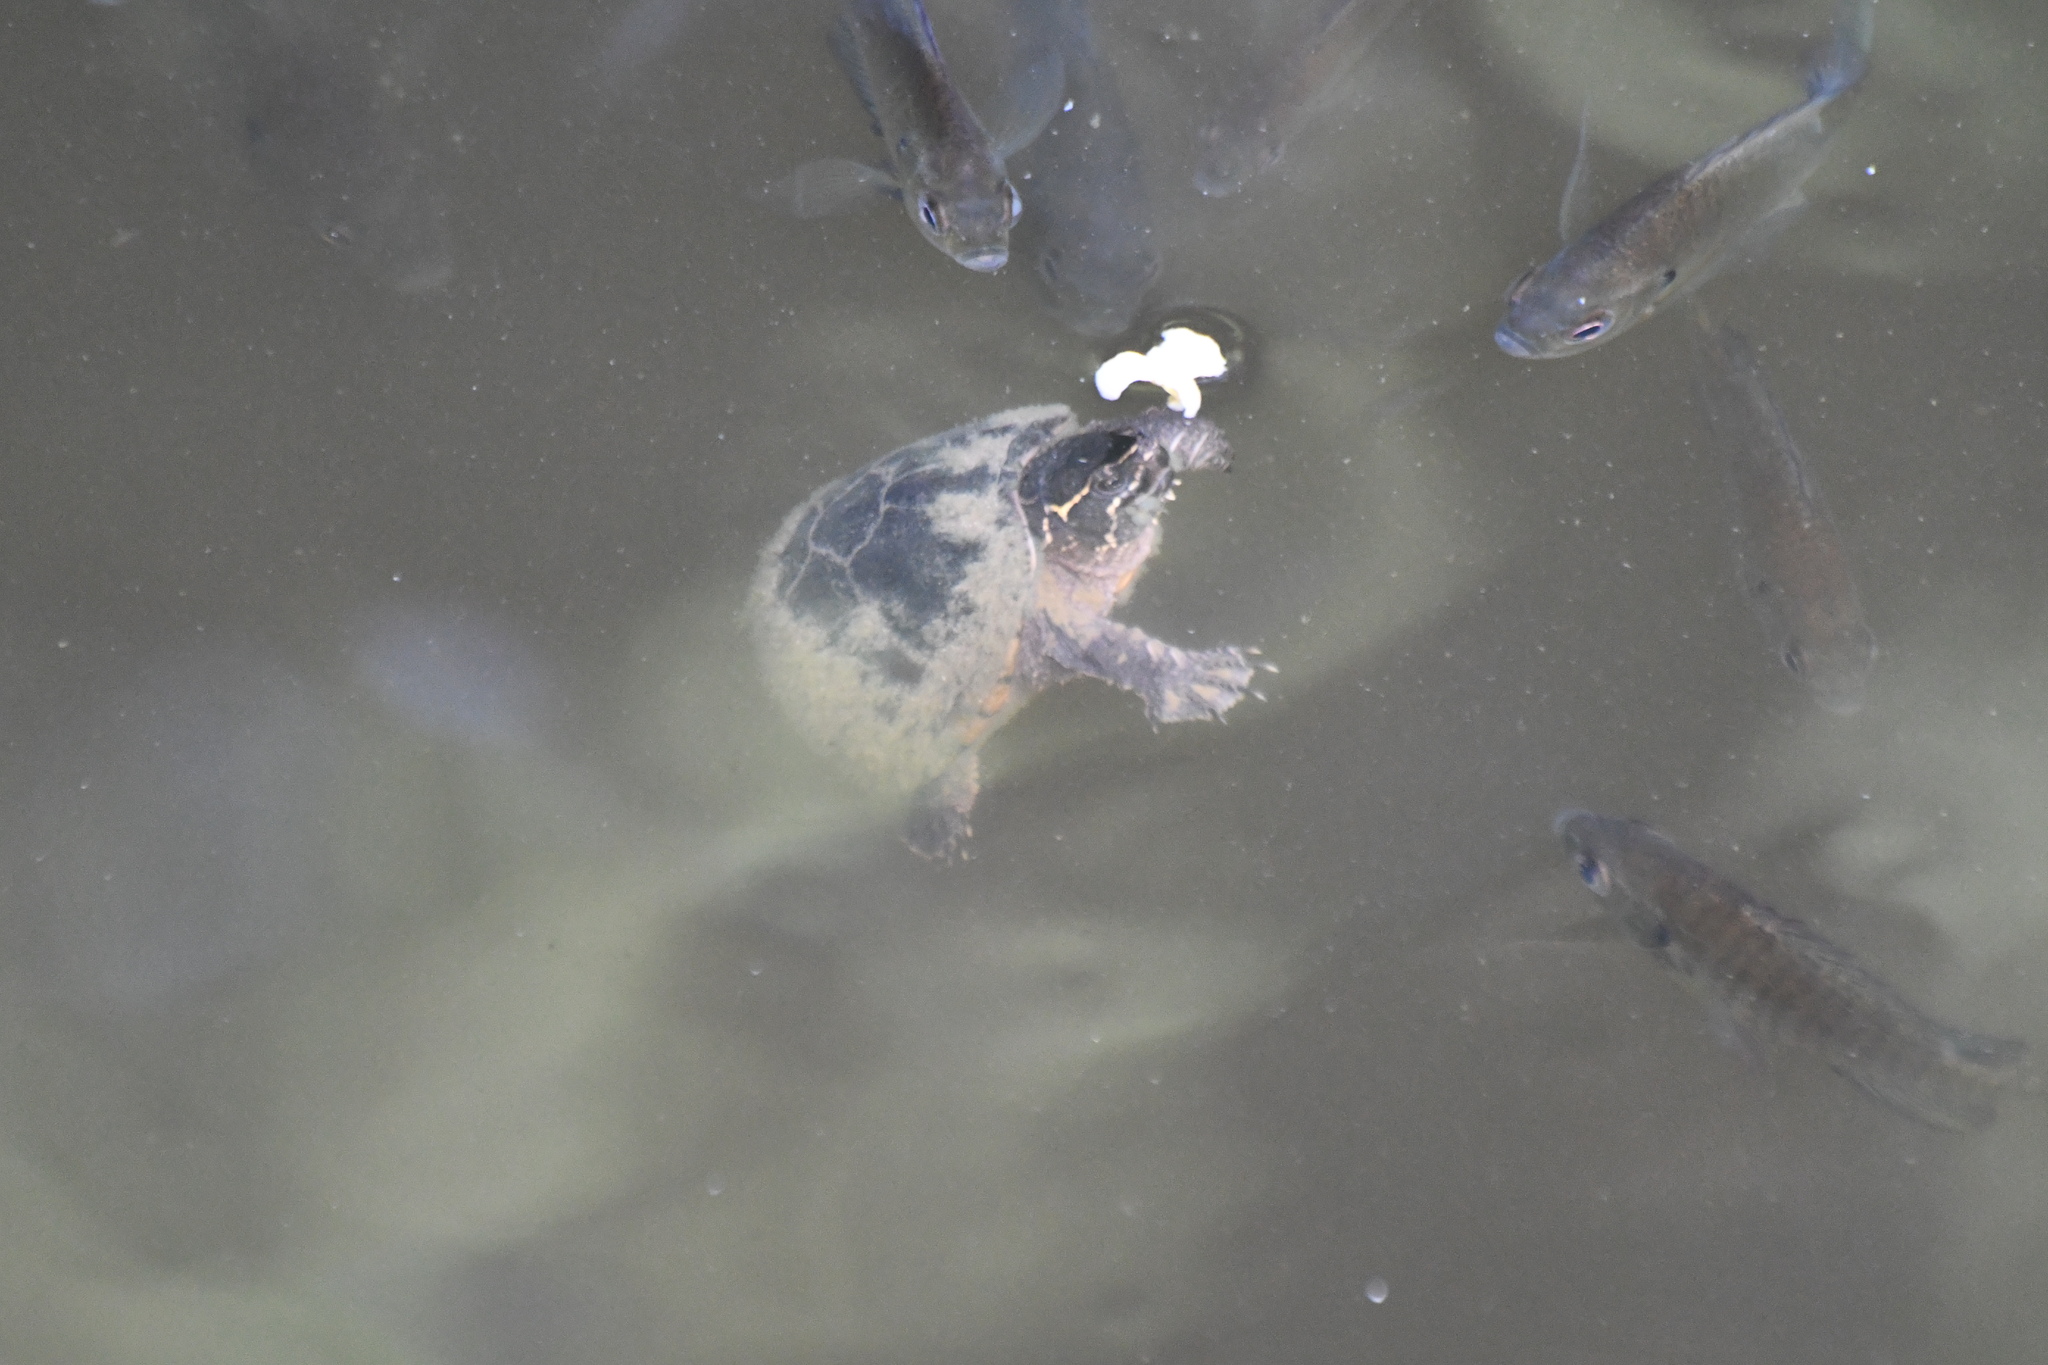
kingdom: Animalia
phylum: Chordata
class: Testudines
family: Kinosternidae
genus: Sternotherus
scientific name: Sternotherus odoratus
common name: Common musk turtle
